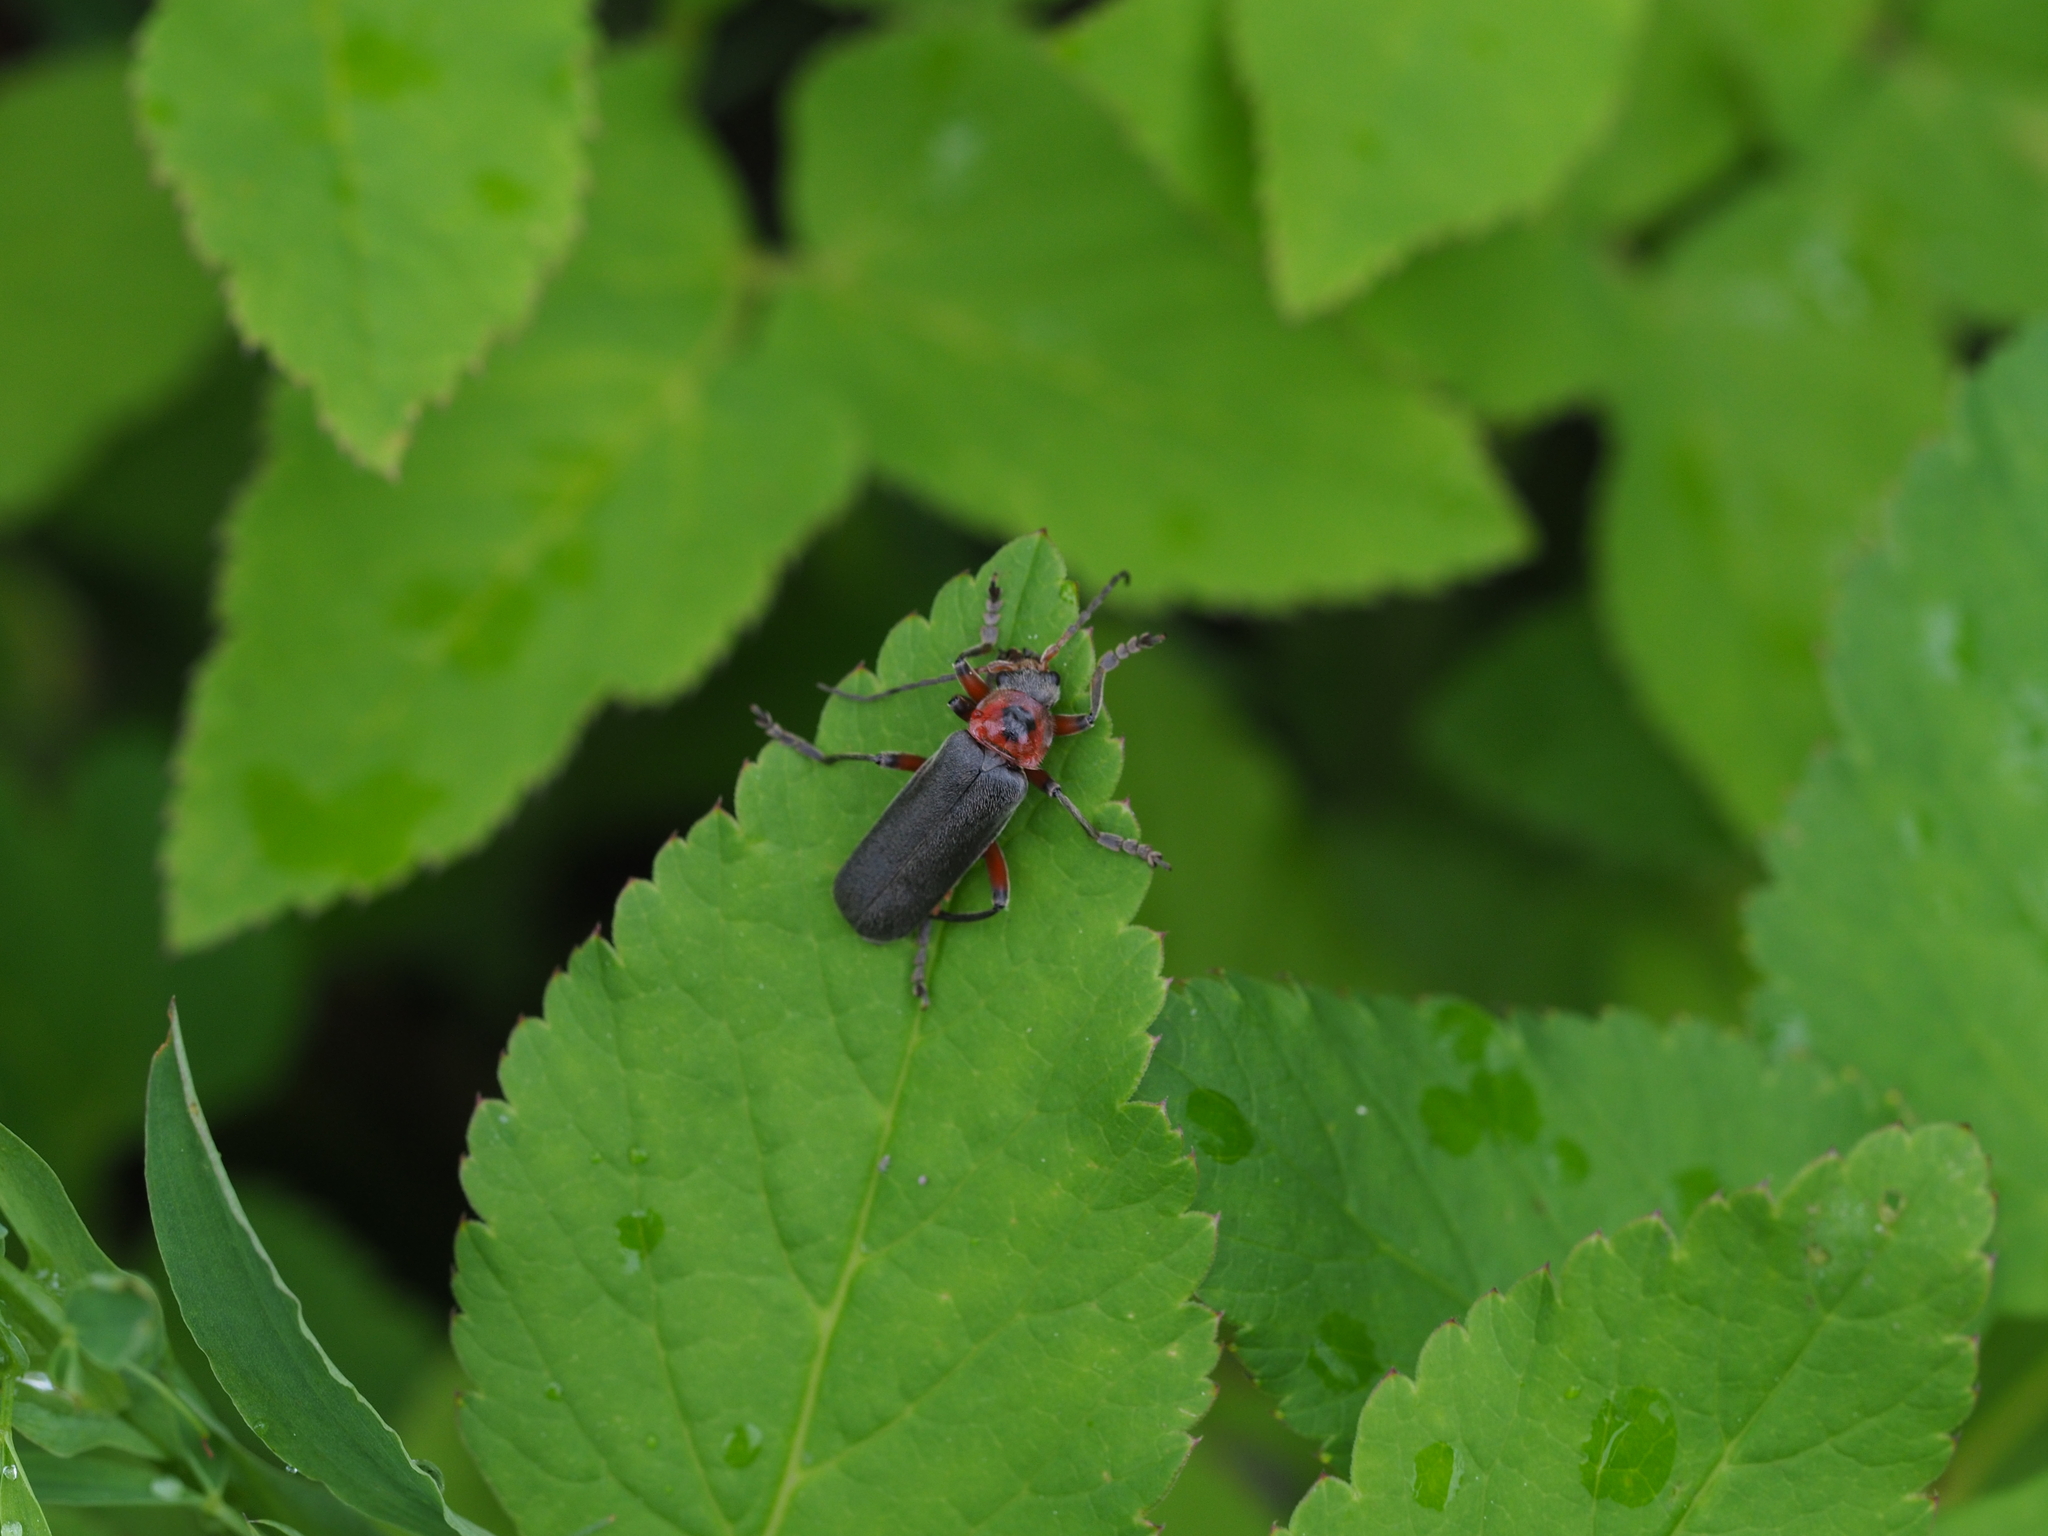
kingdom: Animalia
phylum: Arthropoda
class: Insecta
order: Coleoptera
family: Cantharidae
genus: Cantharis
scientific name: Cantharis rustica
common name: Soldier beetle
